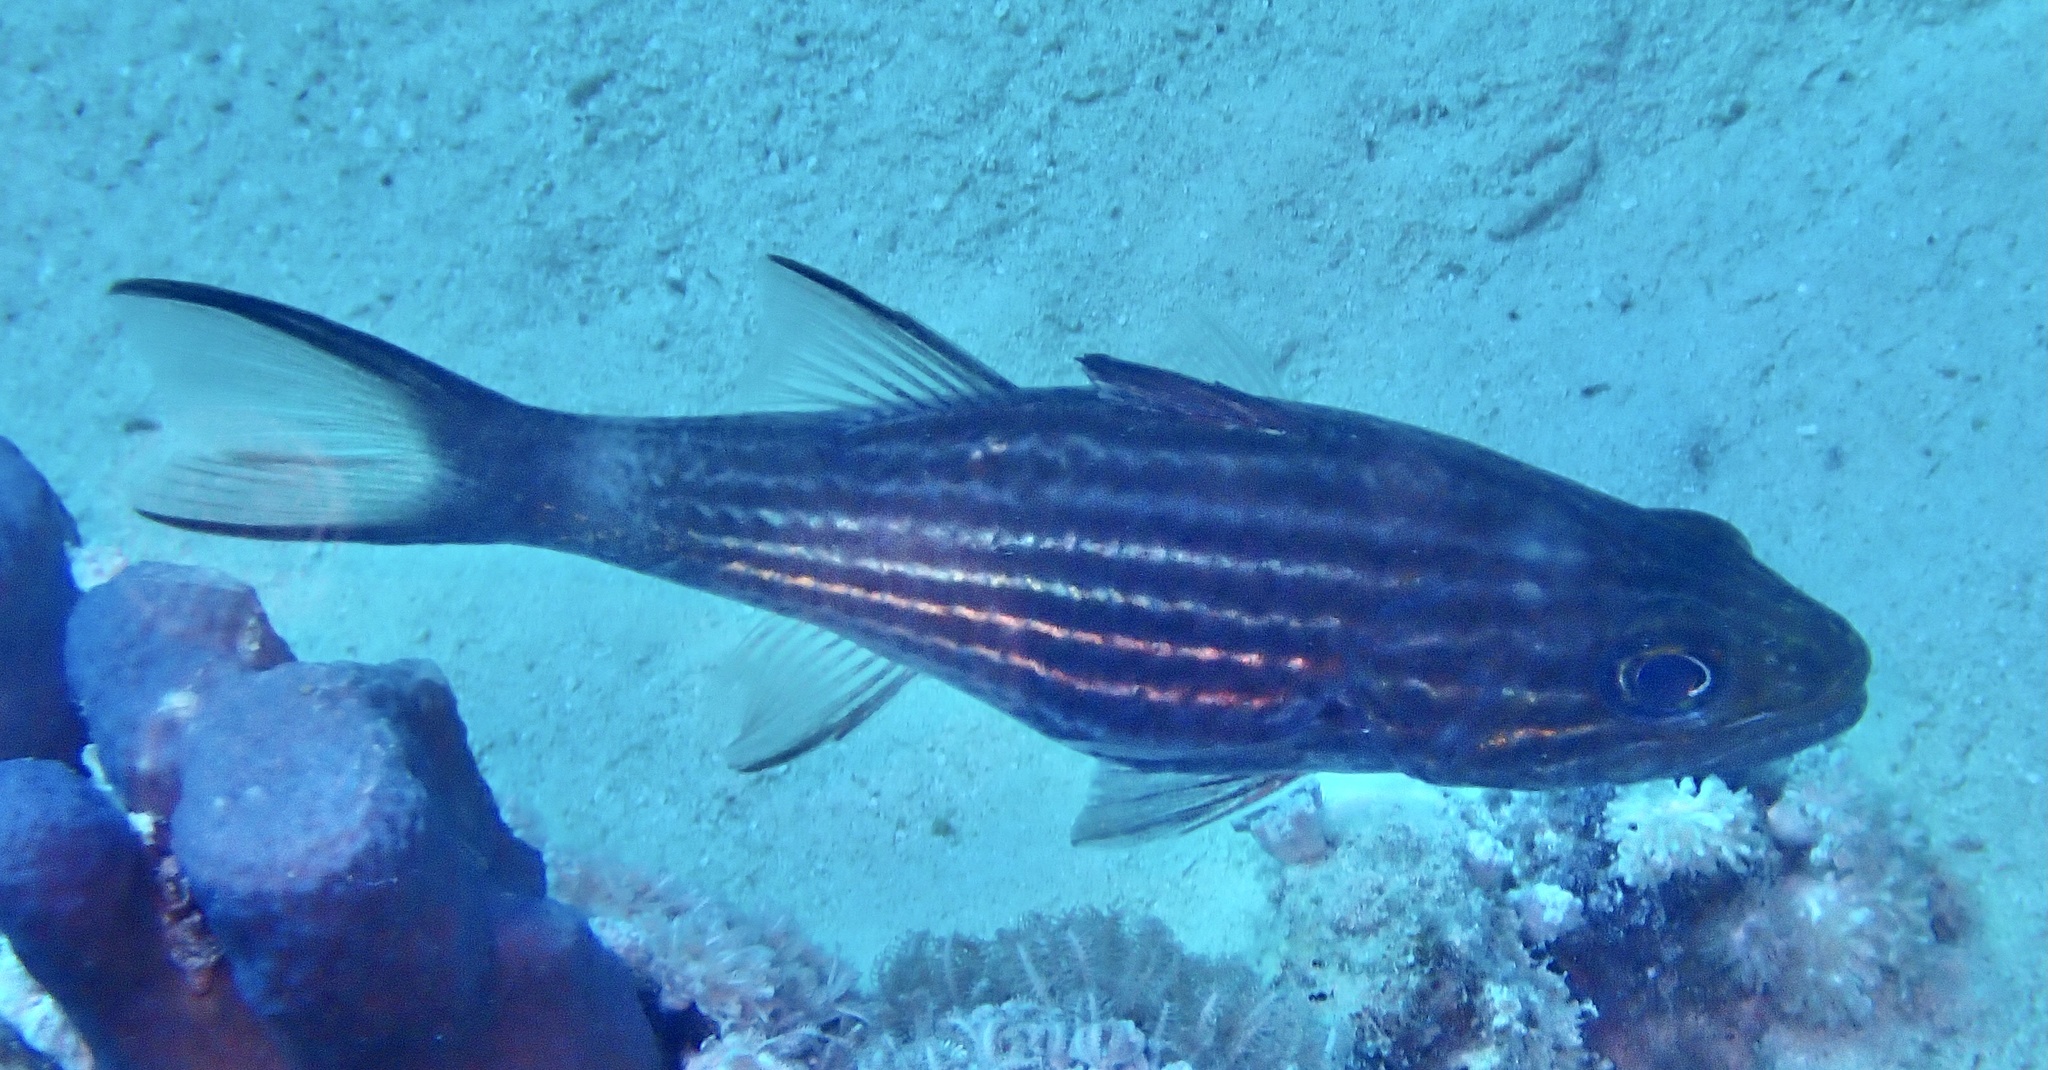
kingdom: Animalia
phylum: Chordata
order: Perciformes
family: Apogonidae
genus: Cheilodipterus
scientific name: Cheilodipterus macrodon
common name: Eight-lined cardinalfish
